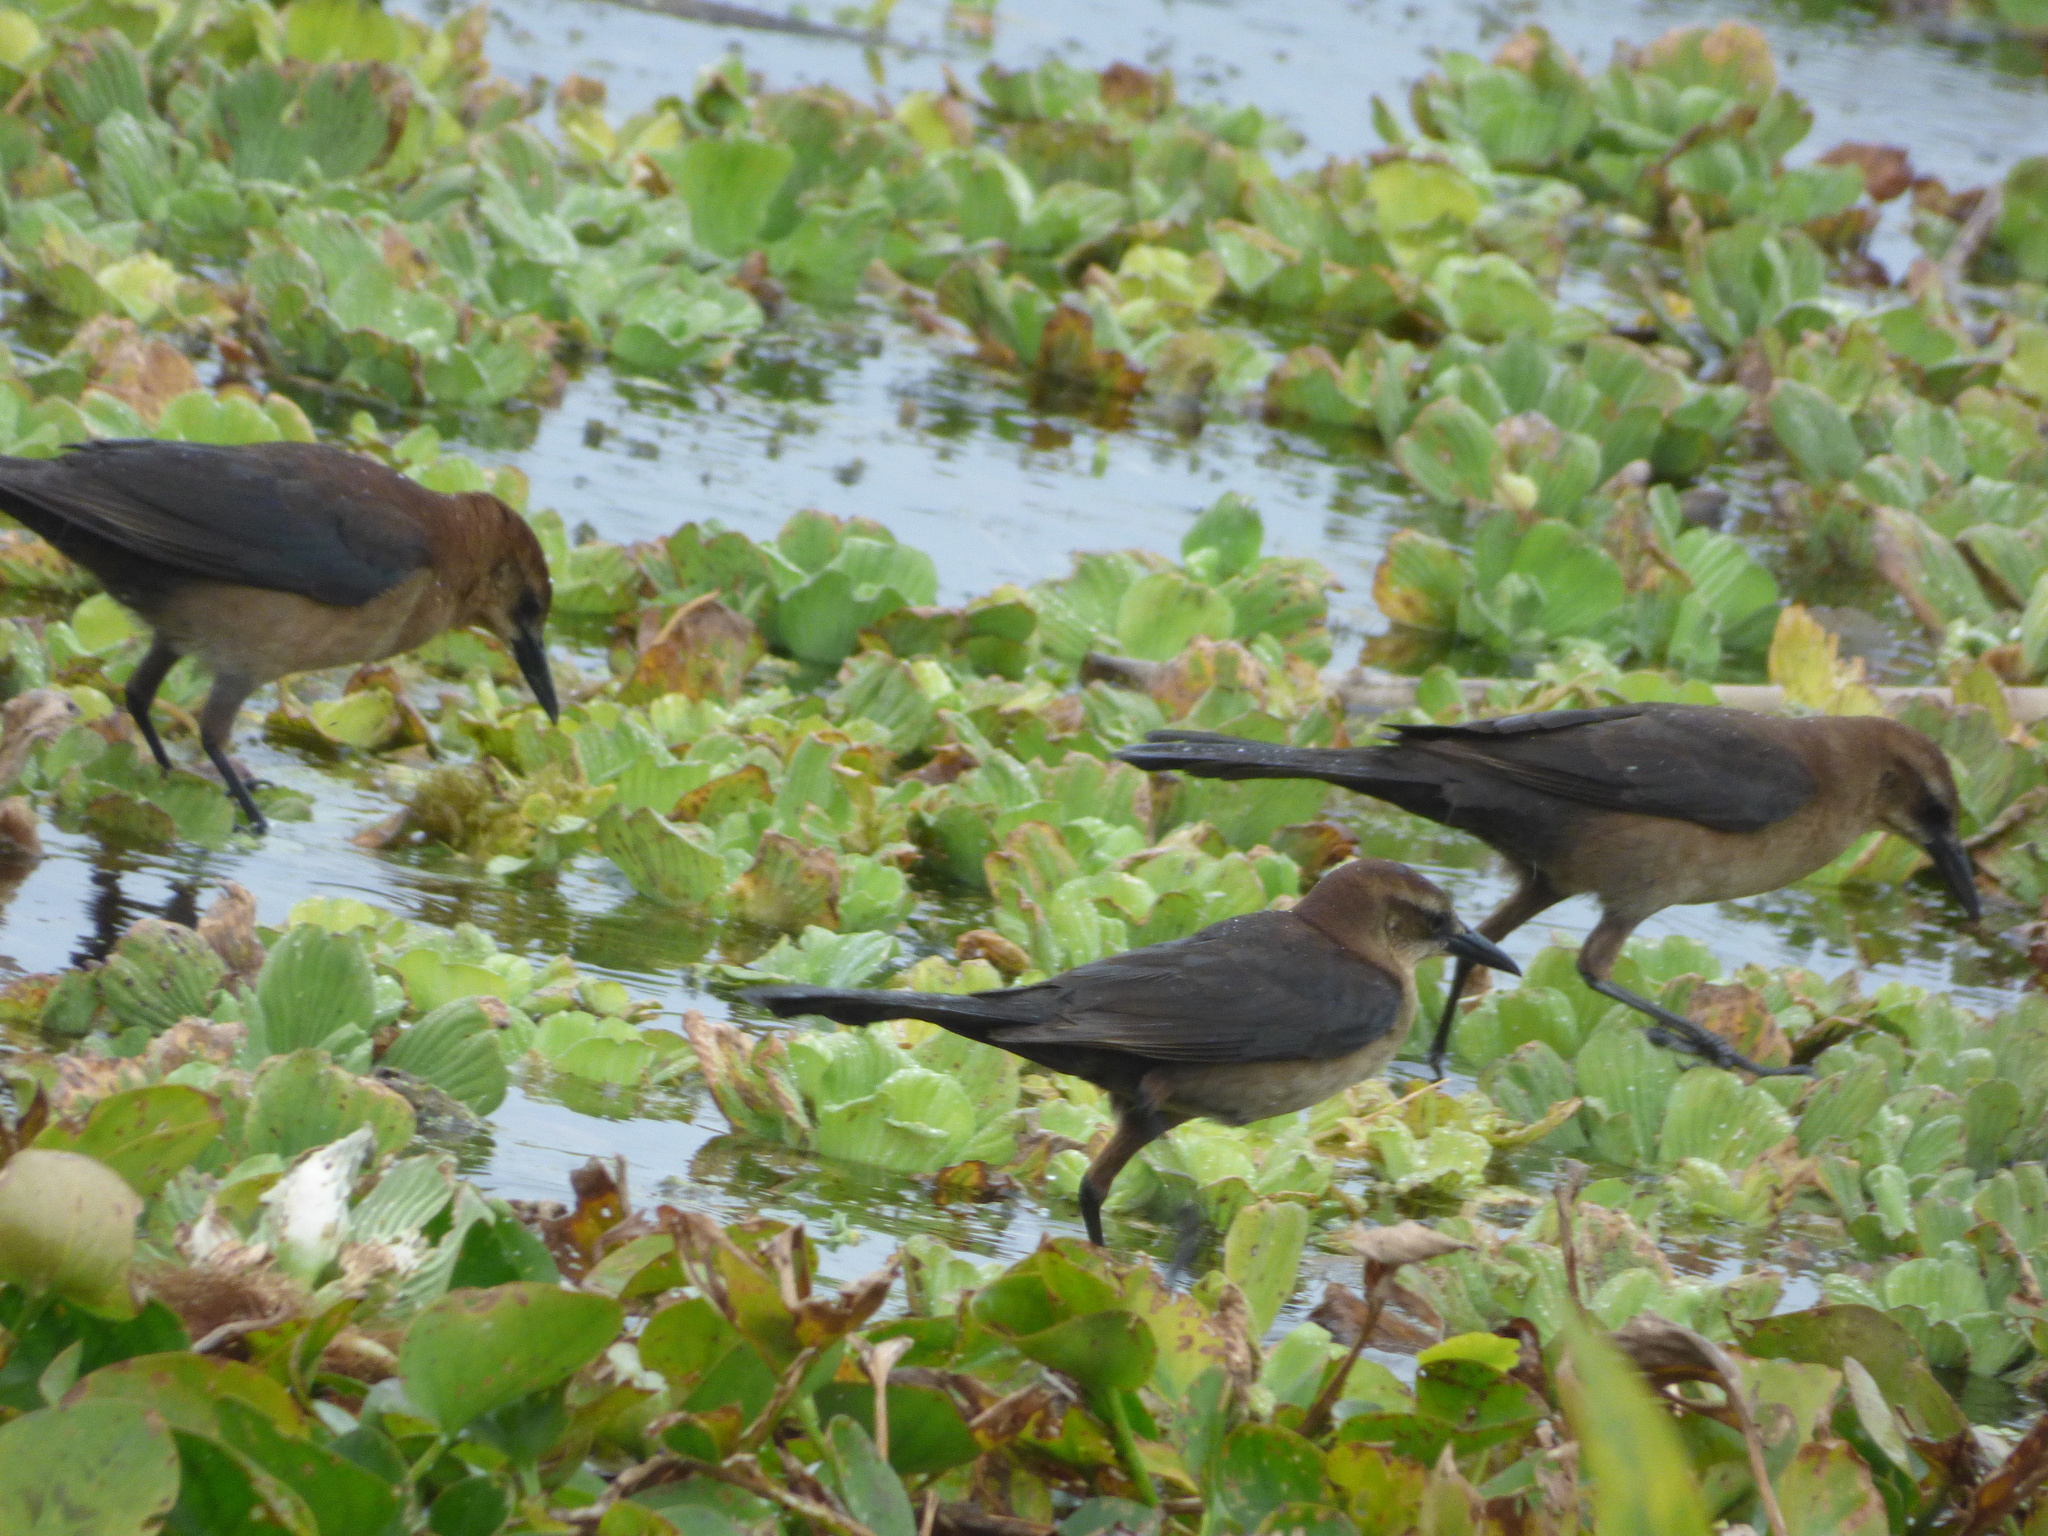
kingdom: Animalia
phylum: Chordata
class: Aves
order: Passeriformes
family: Icteridae
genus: Quiscalus
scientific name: Quiscalus major
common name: Boat-tailed grackle
